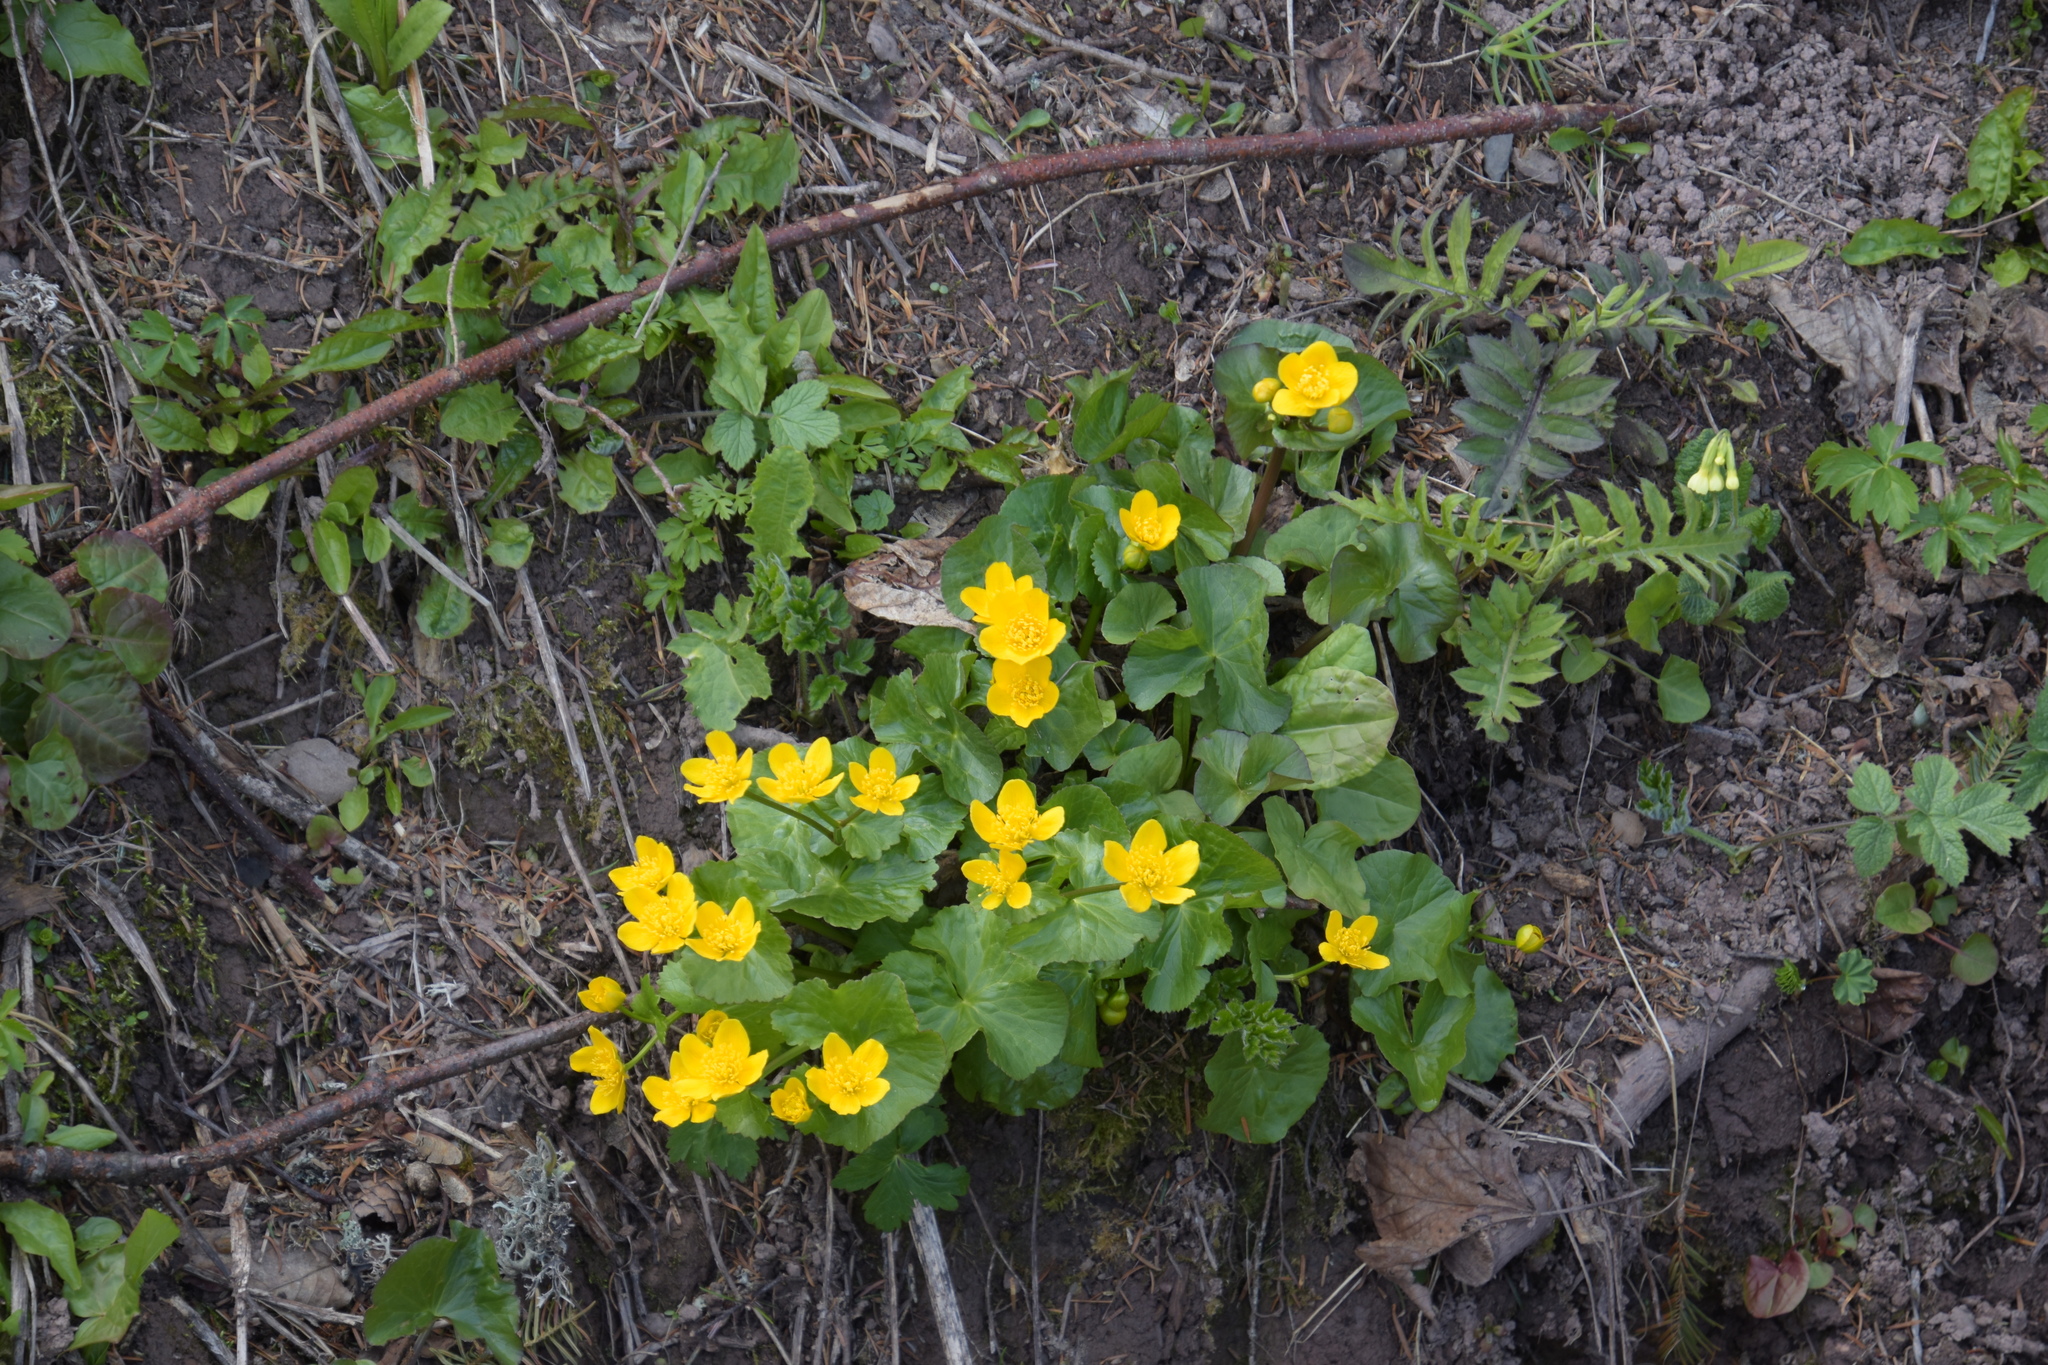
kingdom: Plantae
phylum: Tracheophyta
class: Magnoliopsida
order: Ranunculales
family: Ranunculaceae
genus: Caltha
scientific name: Caltha palustris
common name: Marsh marigold
